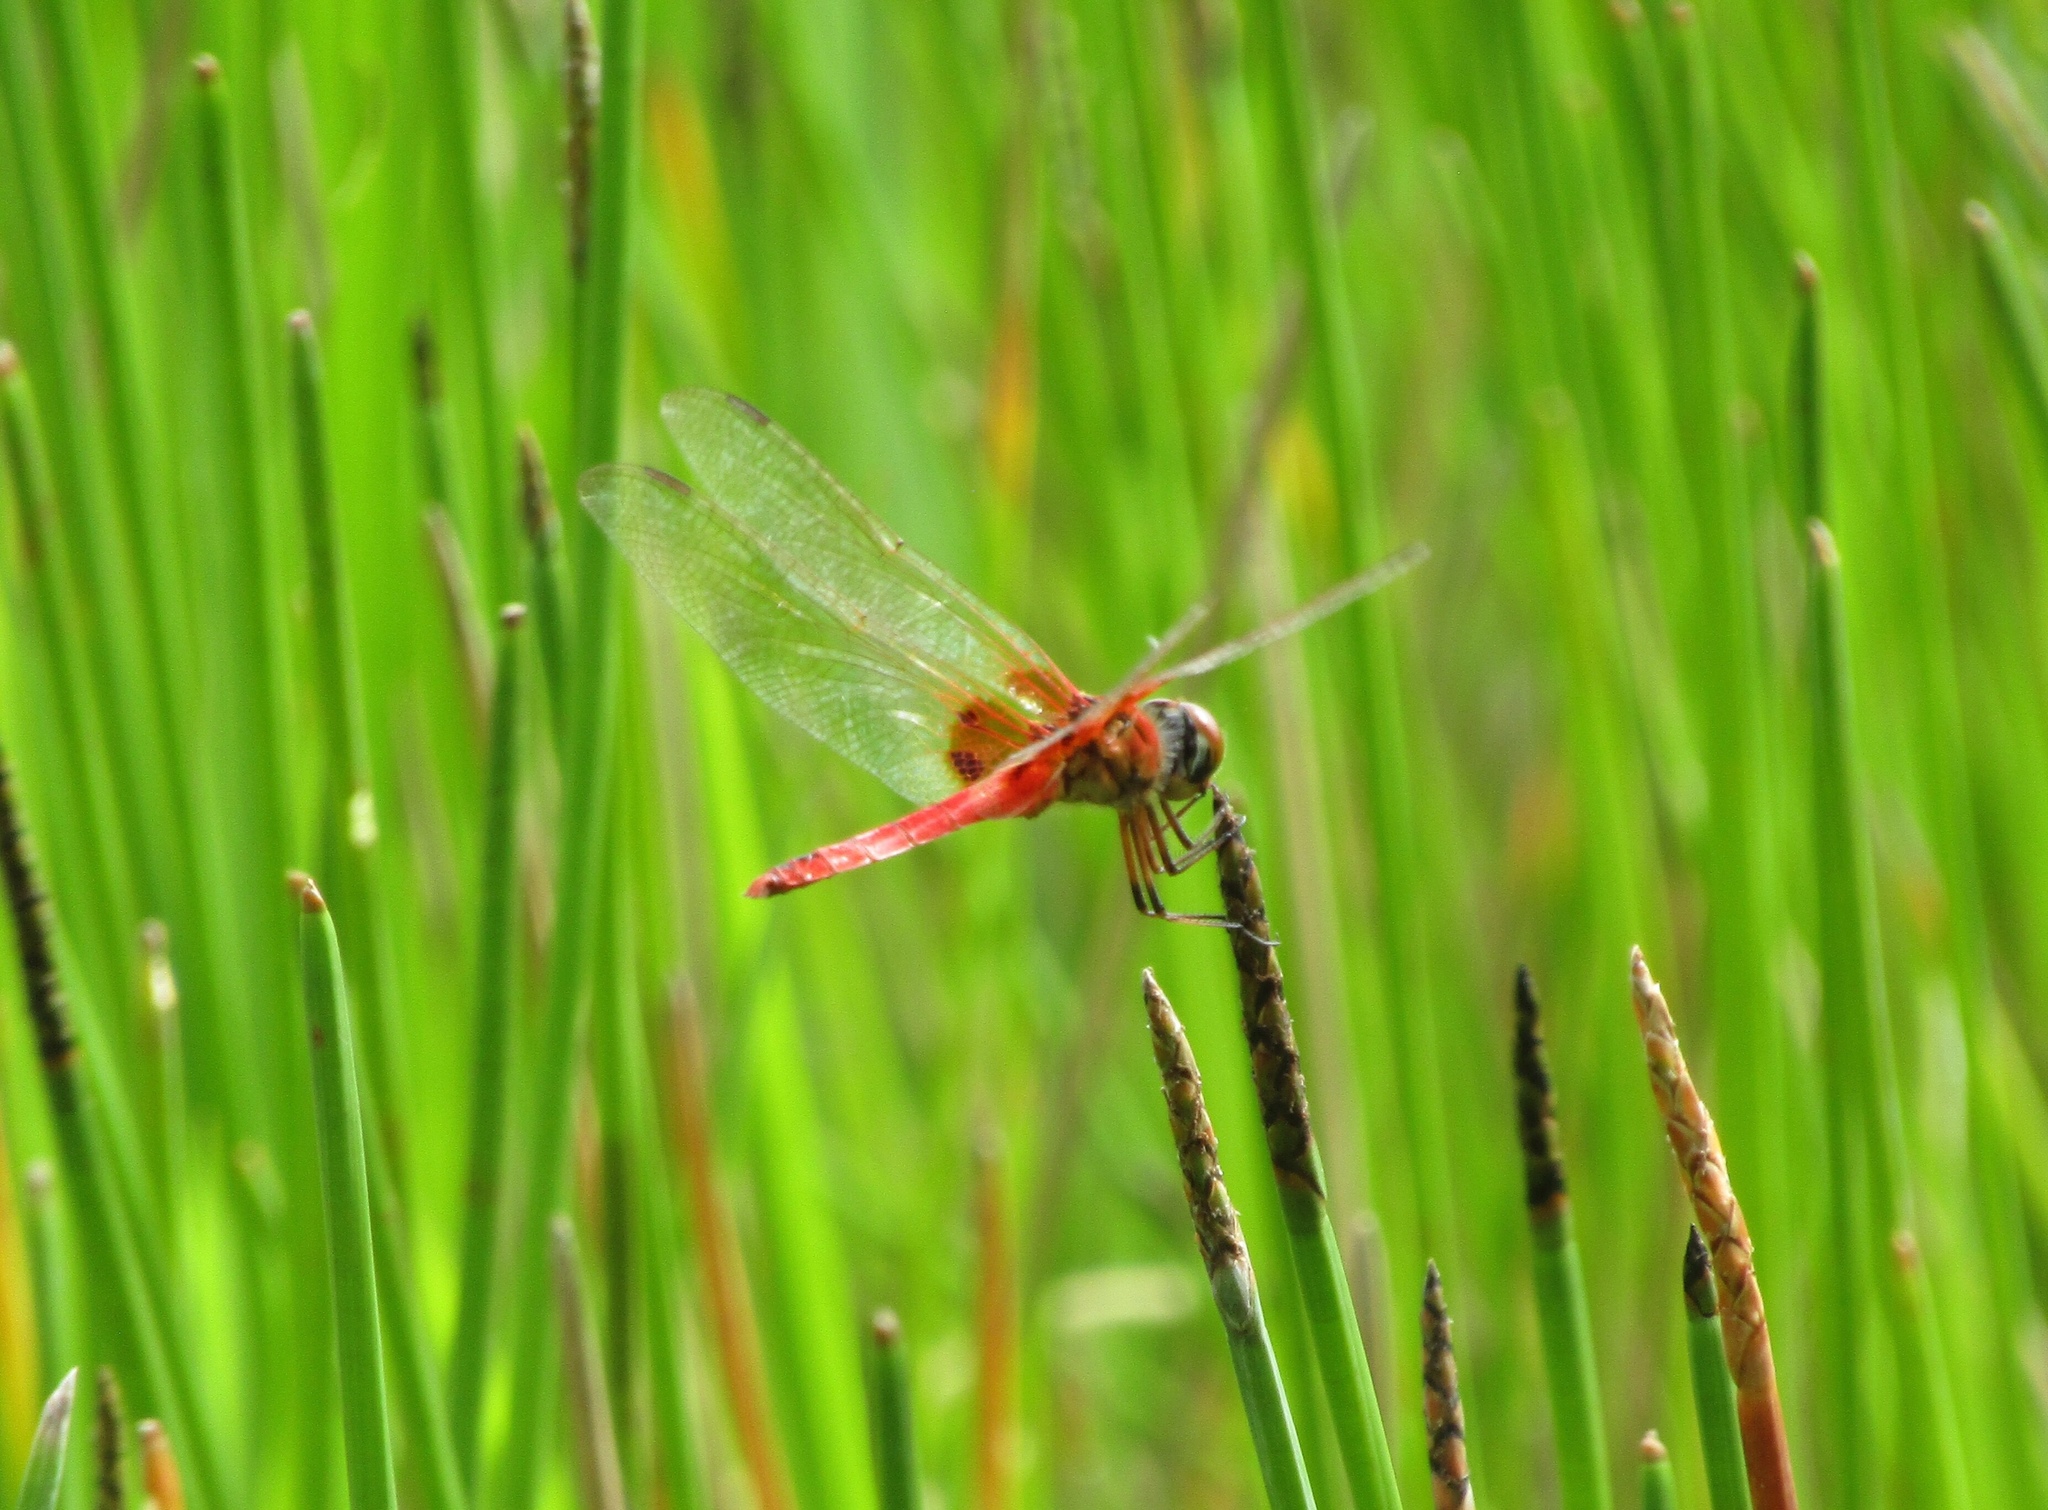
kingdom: Animalia
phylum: Arthropoda
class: Insecta
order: Odonata
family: Libellulidae
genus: Urothemis
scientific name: Urothemis signata
